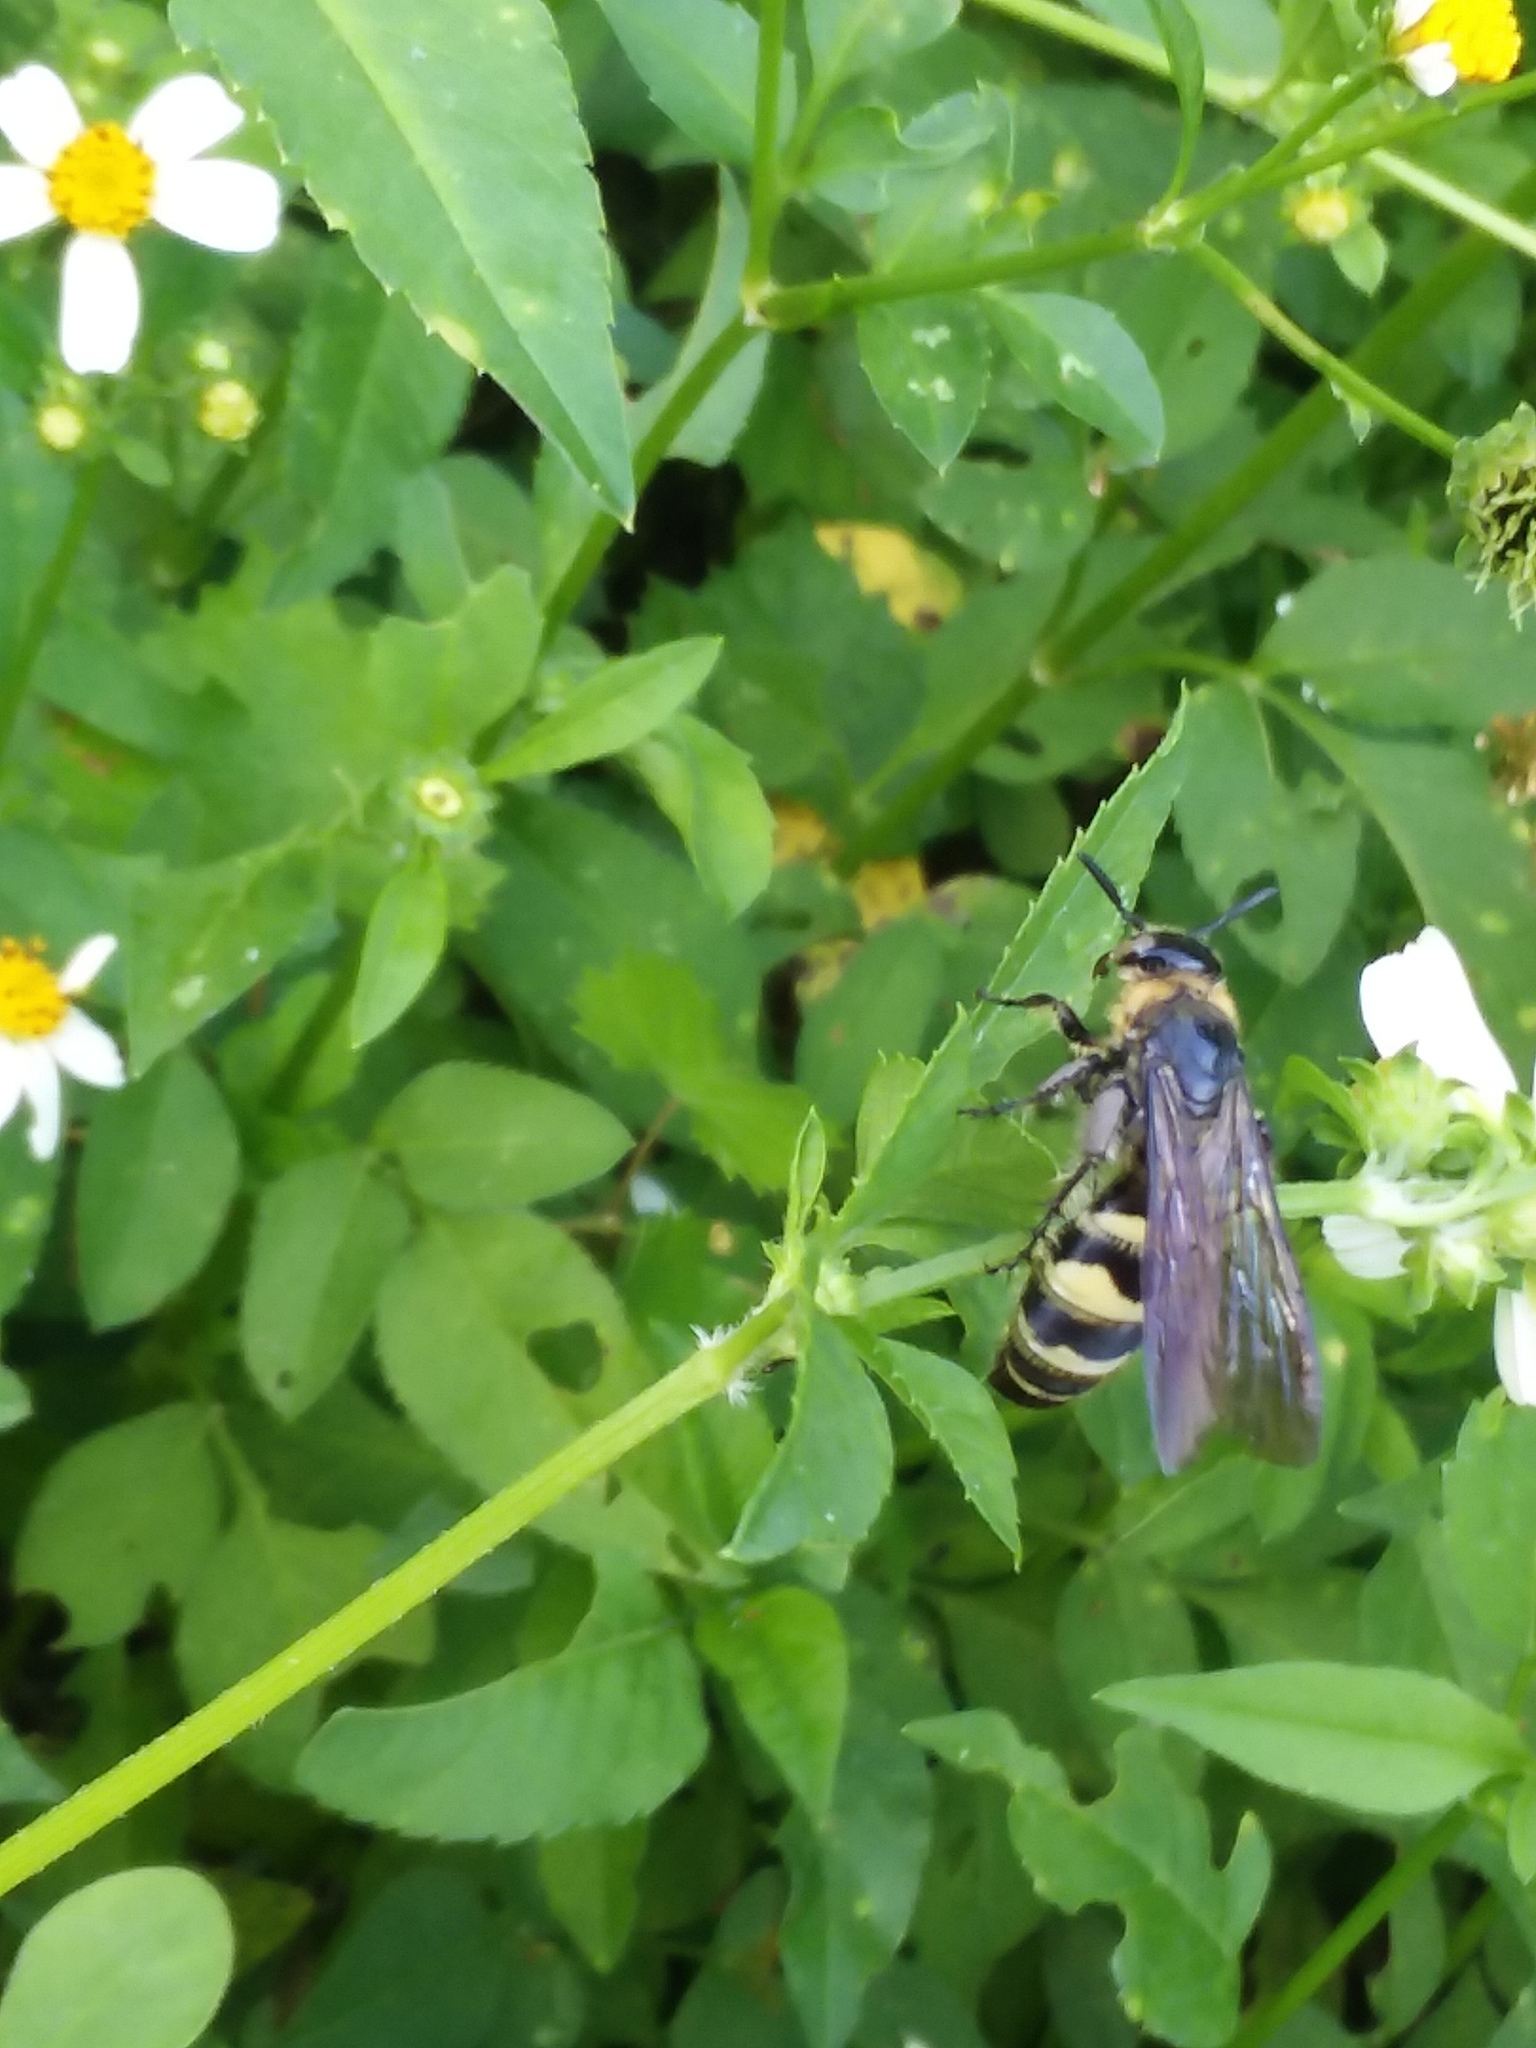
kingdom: Animalia
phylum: Arthropoda
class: Insecta
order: Hymenoptera
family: Scoliidae
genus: Dielis
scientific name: Dielis
